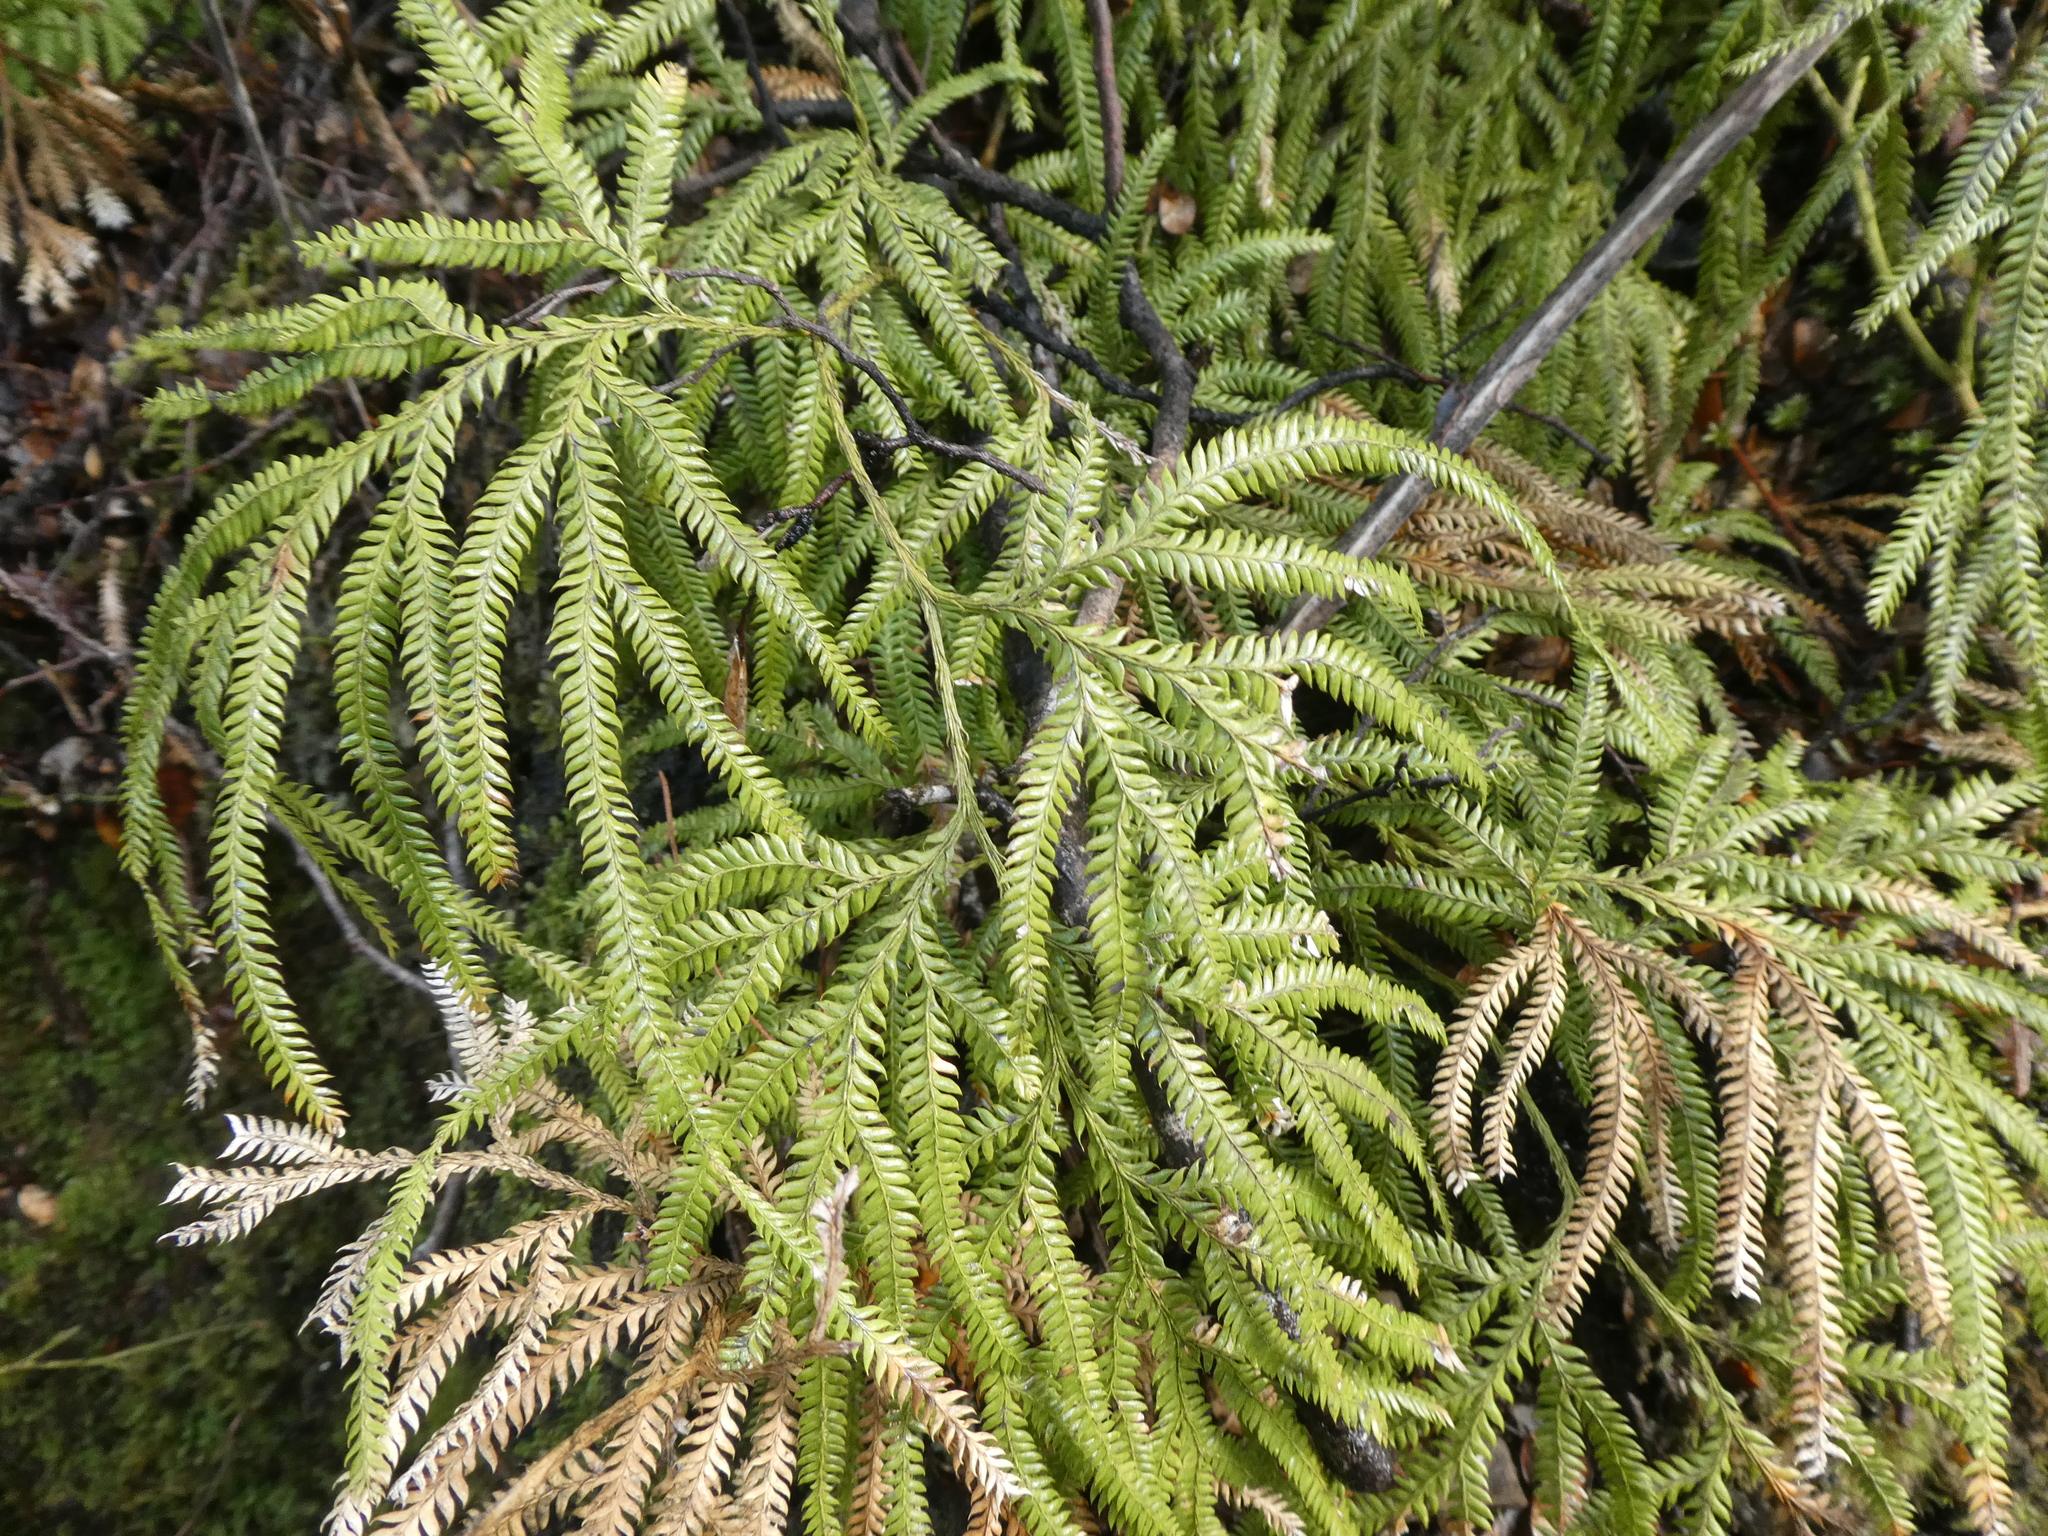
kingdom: Plantae
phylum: Tracheophyta
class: Lycopodiopsida
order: Lycopodiales
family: Lycopodiaceae
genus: Lycopodium
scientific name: Lycopodium volubile
